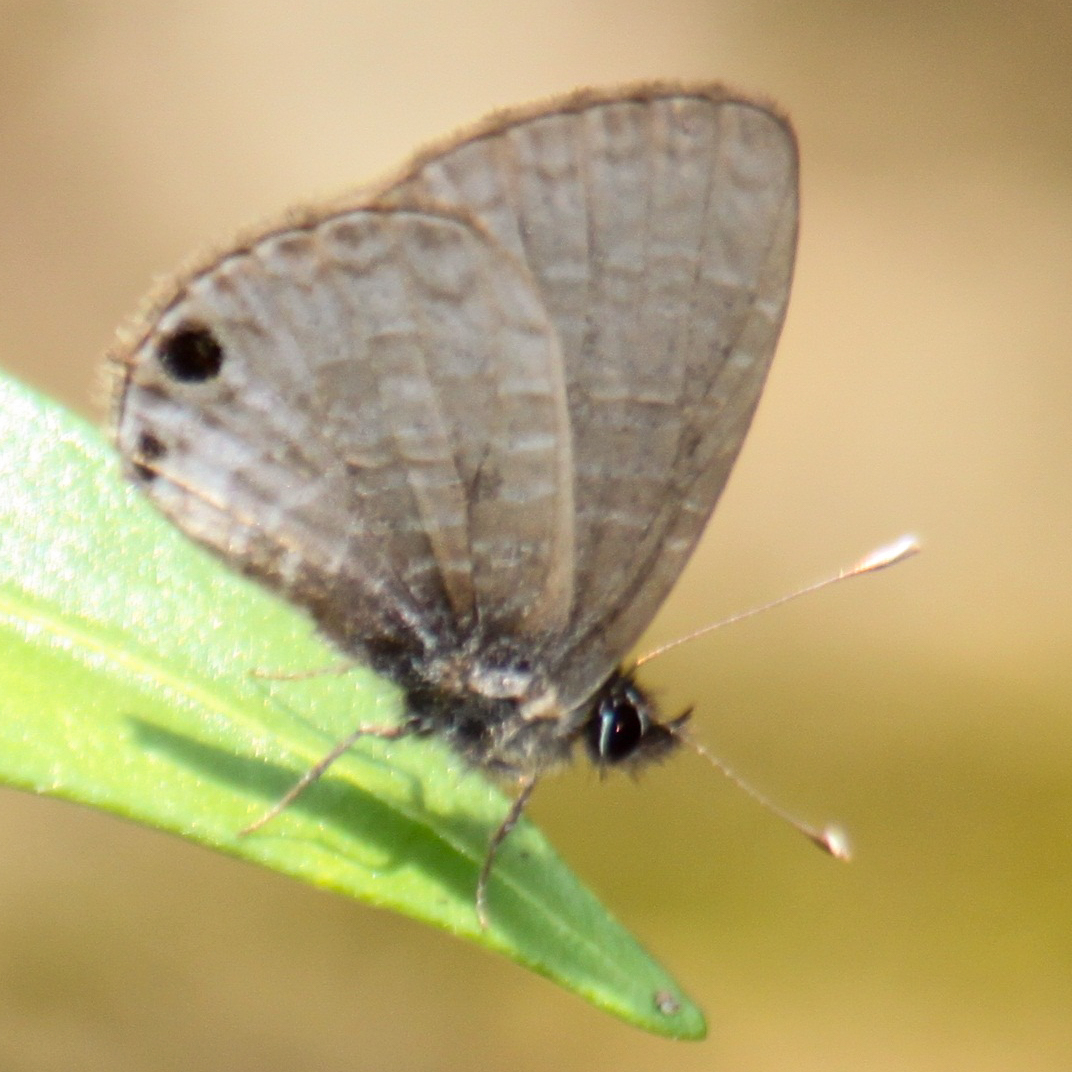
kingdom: Animalia
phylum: Arthropoda
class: Insecta
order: Lepidoptera
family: Lycaenidae
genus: Prosotas
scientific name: Prosotas dubiosa
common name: Tailless lineblue
